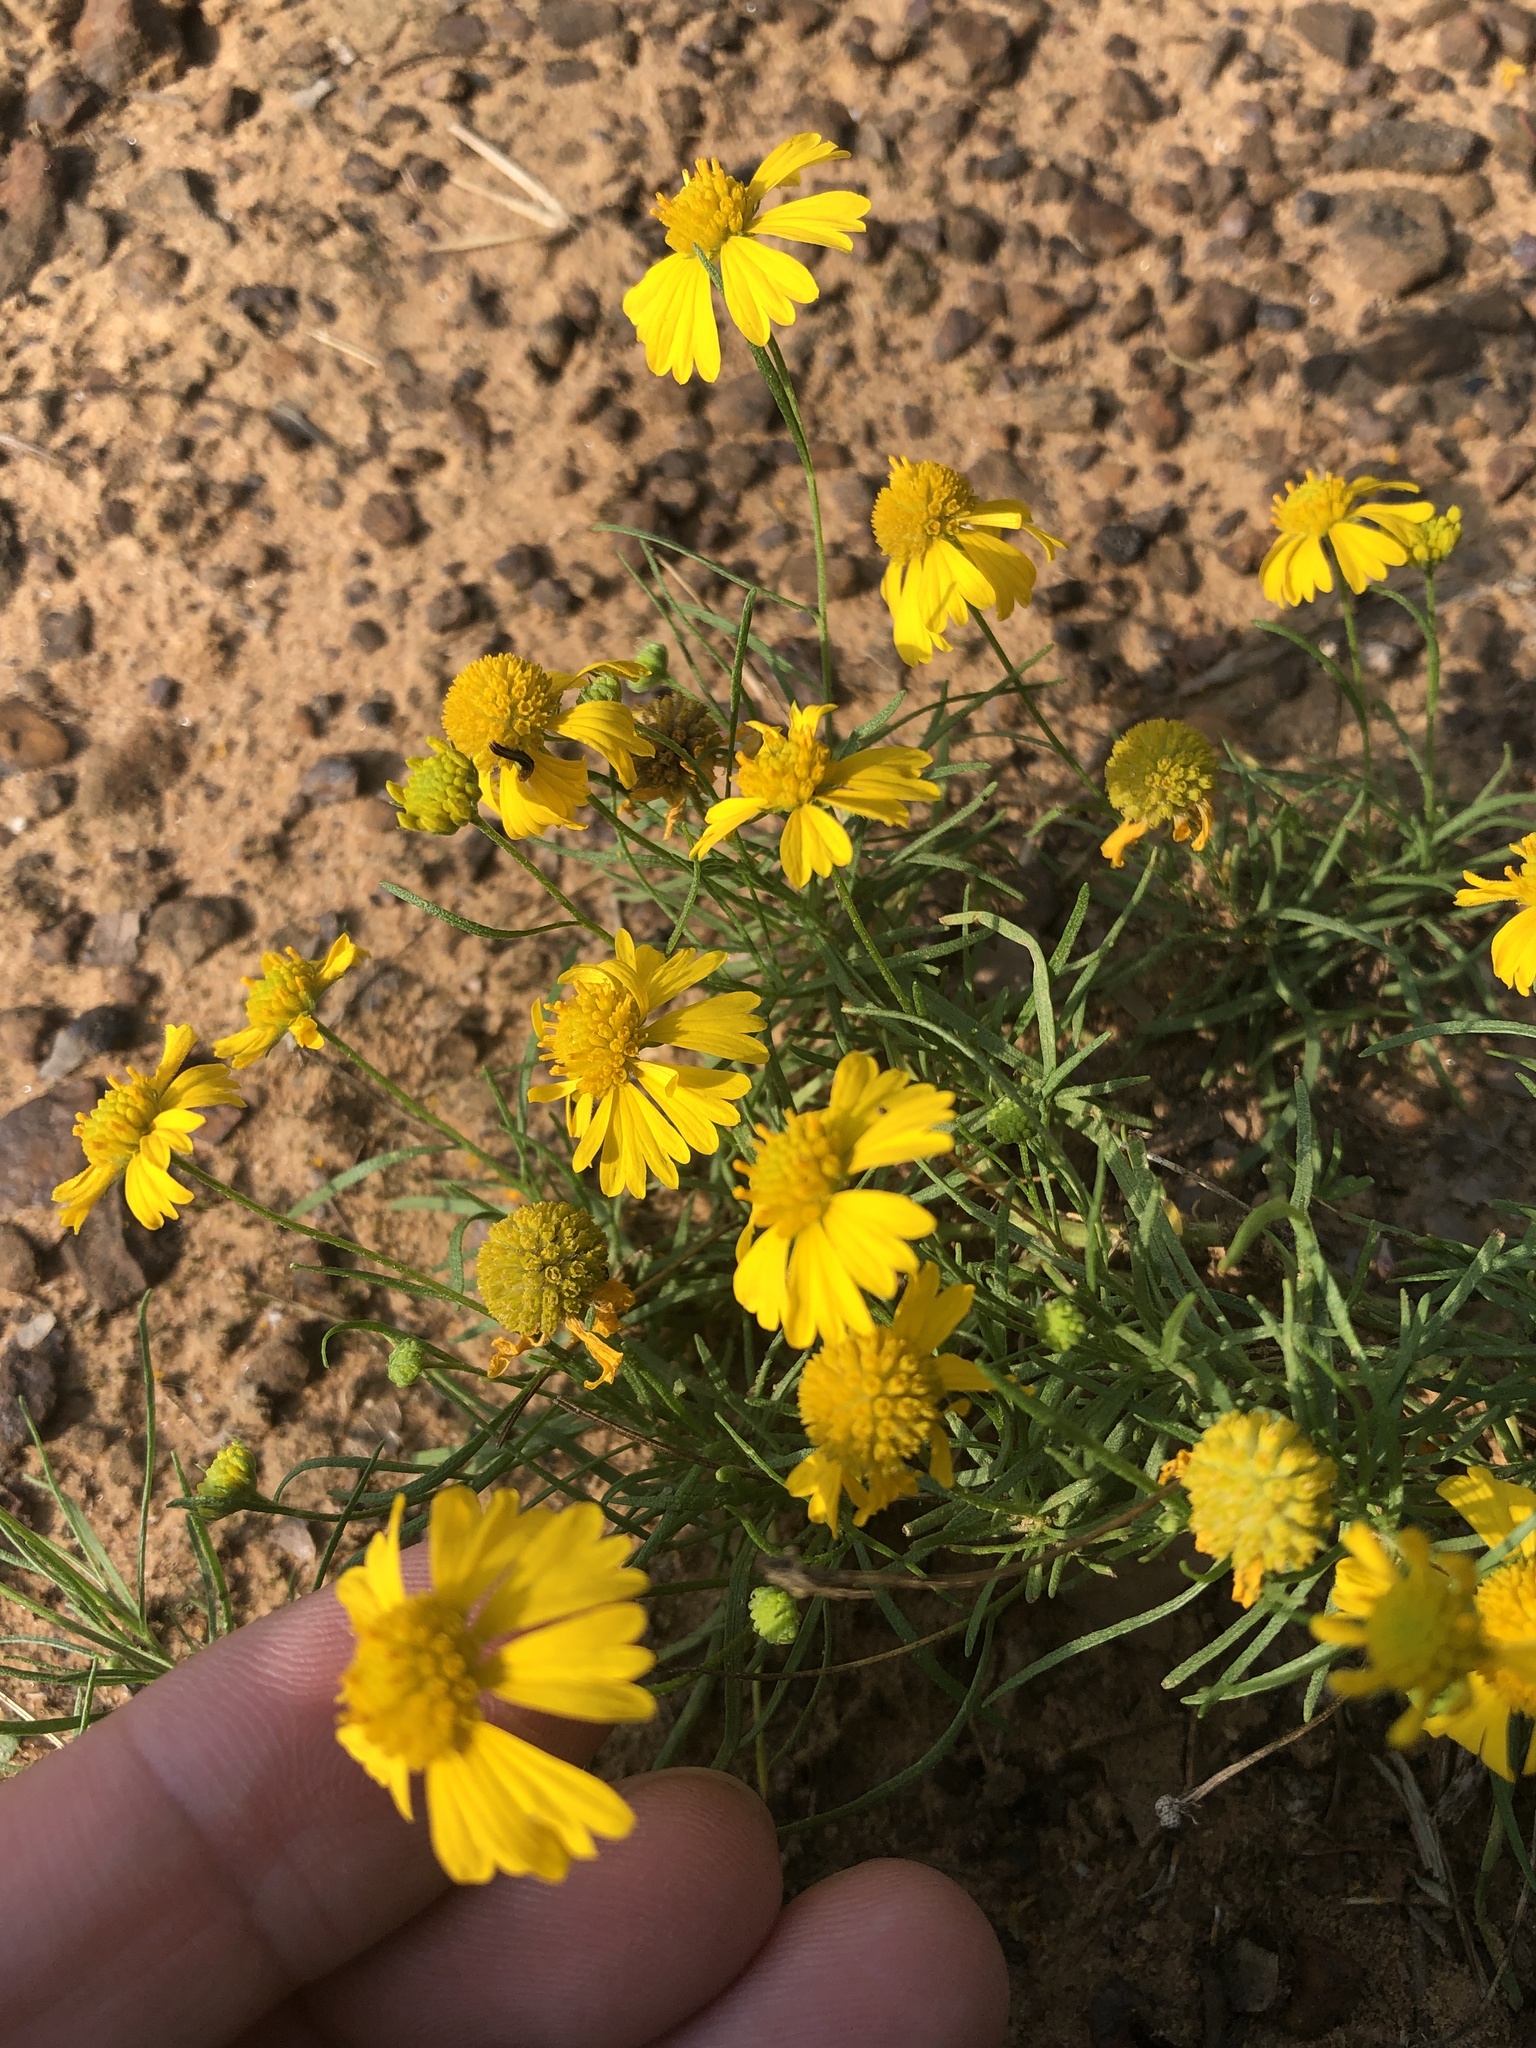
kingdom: Plantae
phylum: Tracheophyta
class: Magnoliopsida
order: Asterales
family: Asteraceae
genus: Helenium
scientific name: Helenium amarum
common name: Bitter sneezeweed
